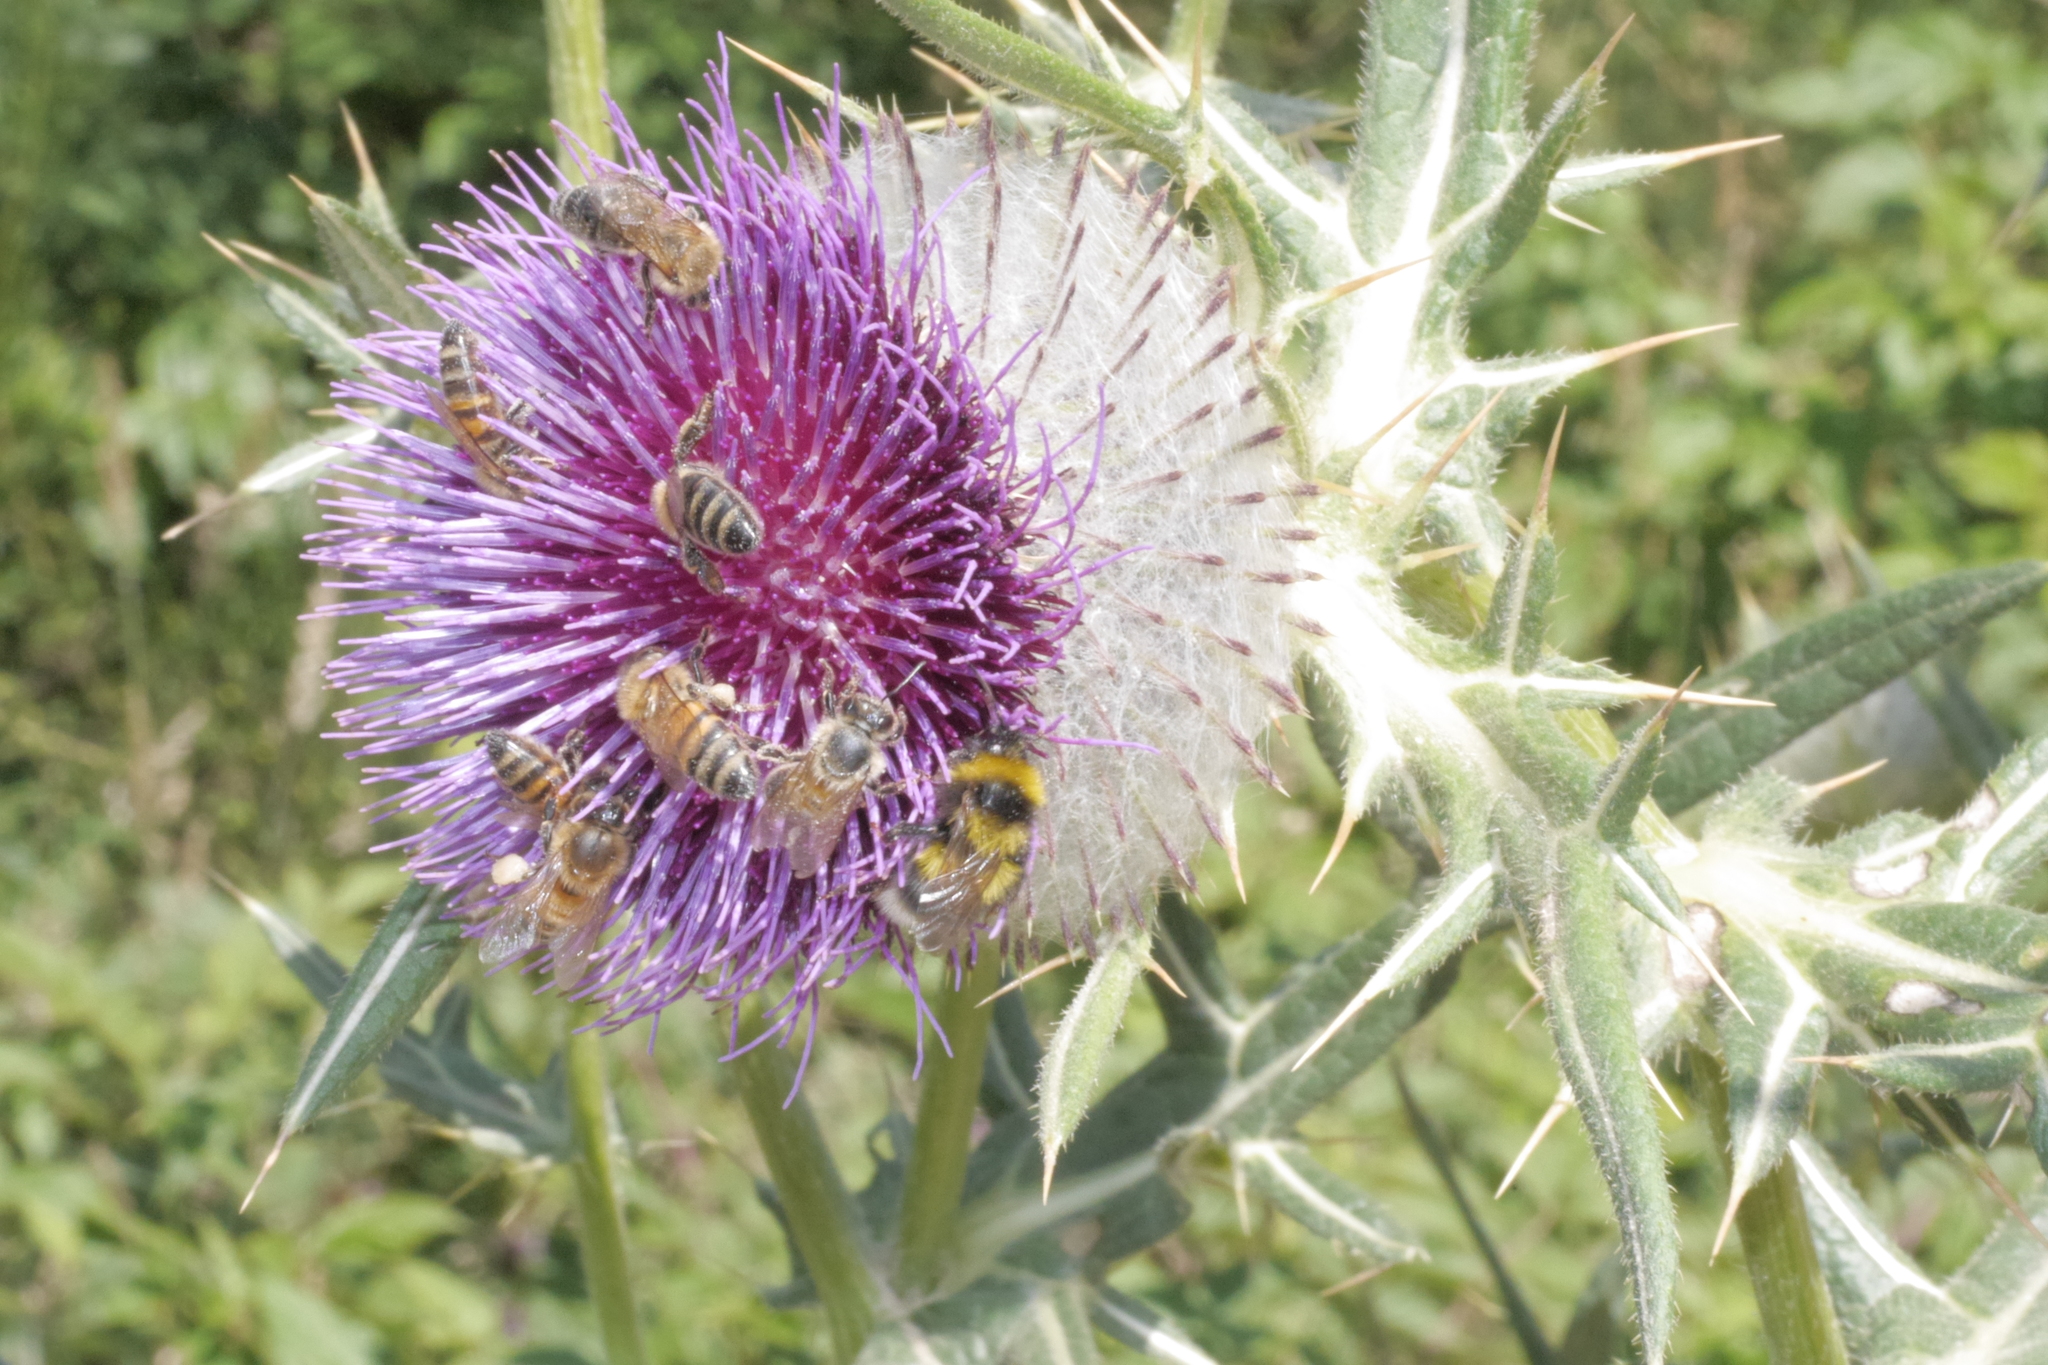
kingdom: Plantae
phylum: Tracheophyta
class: Magnoliopsida
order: Asterales
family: Asteraceae
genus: Lophiolepis
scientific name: Lophiolepis eriophora
